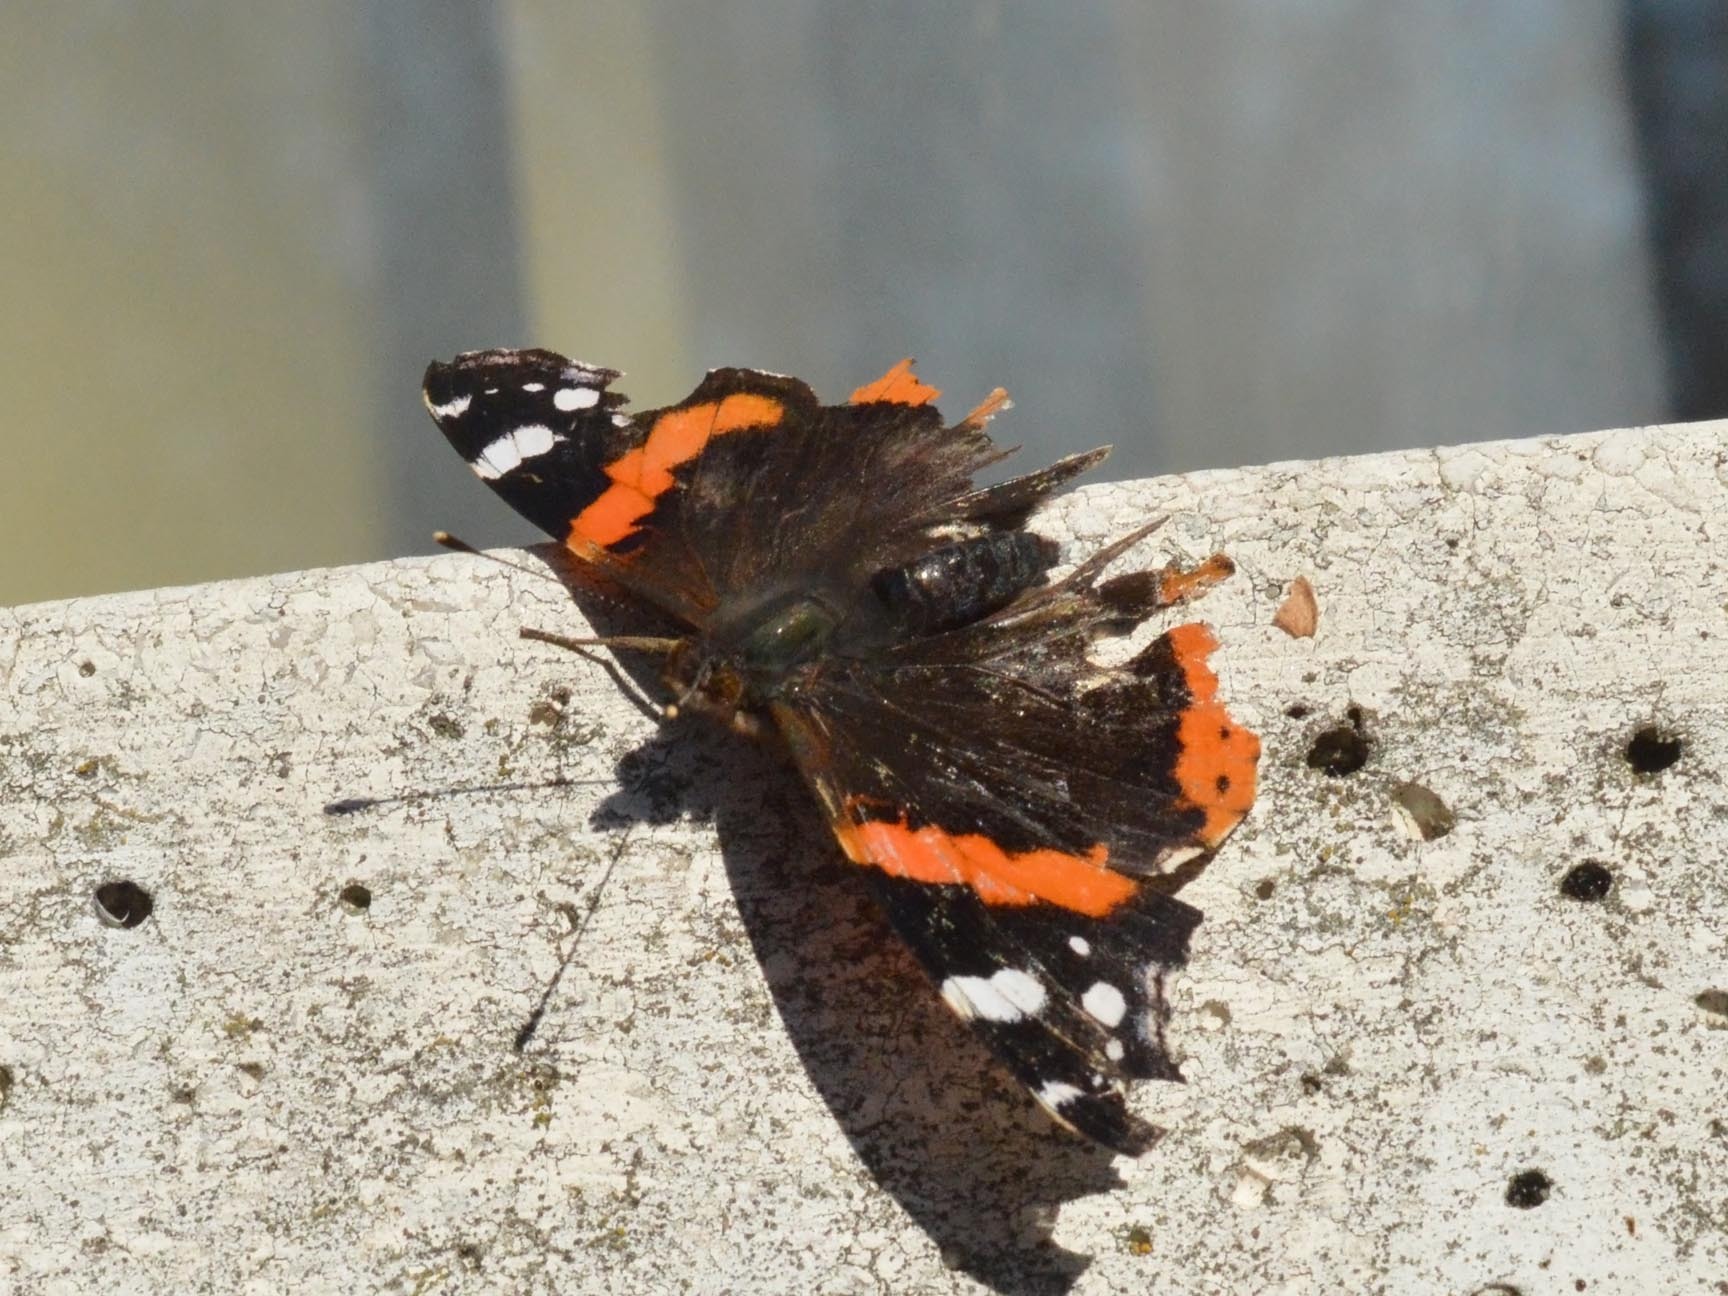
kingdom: Animalia
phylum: Arthropoda
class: Insecta
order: Lepidoptera
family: Nymphalidae
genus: Vanessa
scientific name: Vanessa atalanta
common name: Red admiral
